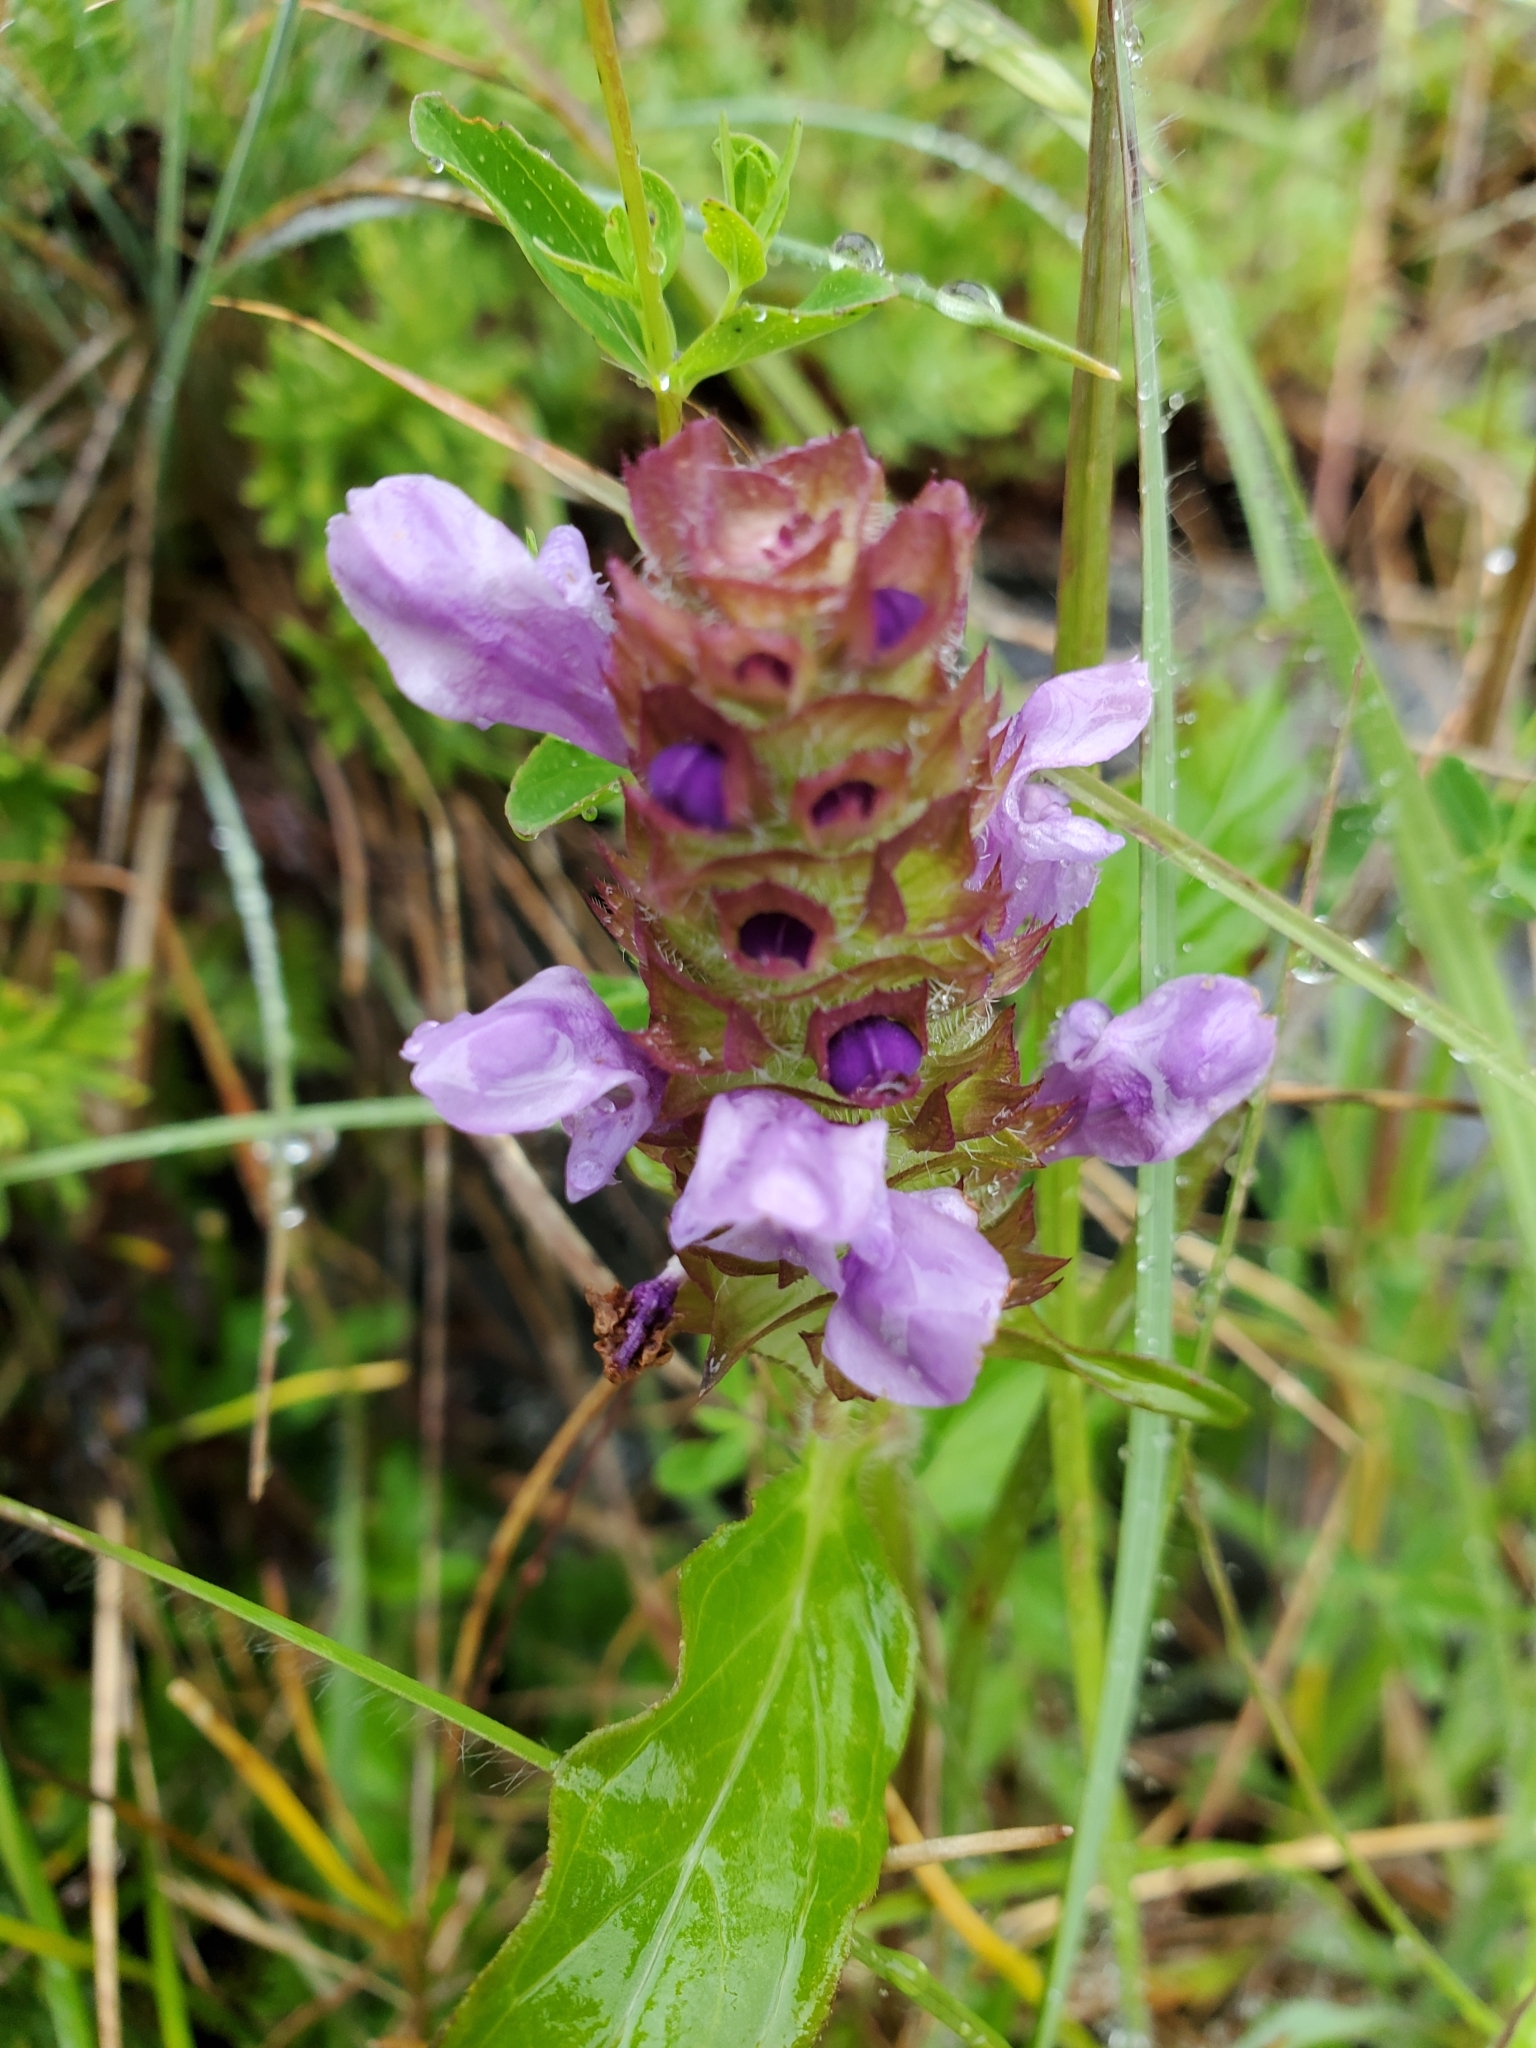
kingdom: Plantae
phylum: Tracheophyta
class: Magnoliopsida
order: Lamiales
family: Lamiaceae
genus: Prunella
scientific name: Prunella vulgaris
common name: Heal-all
